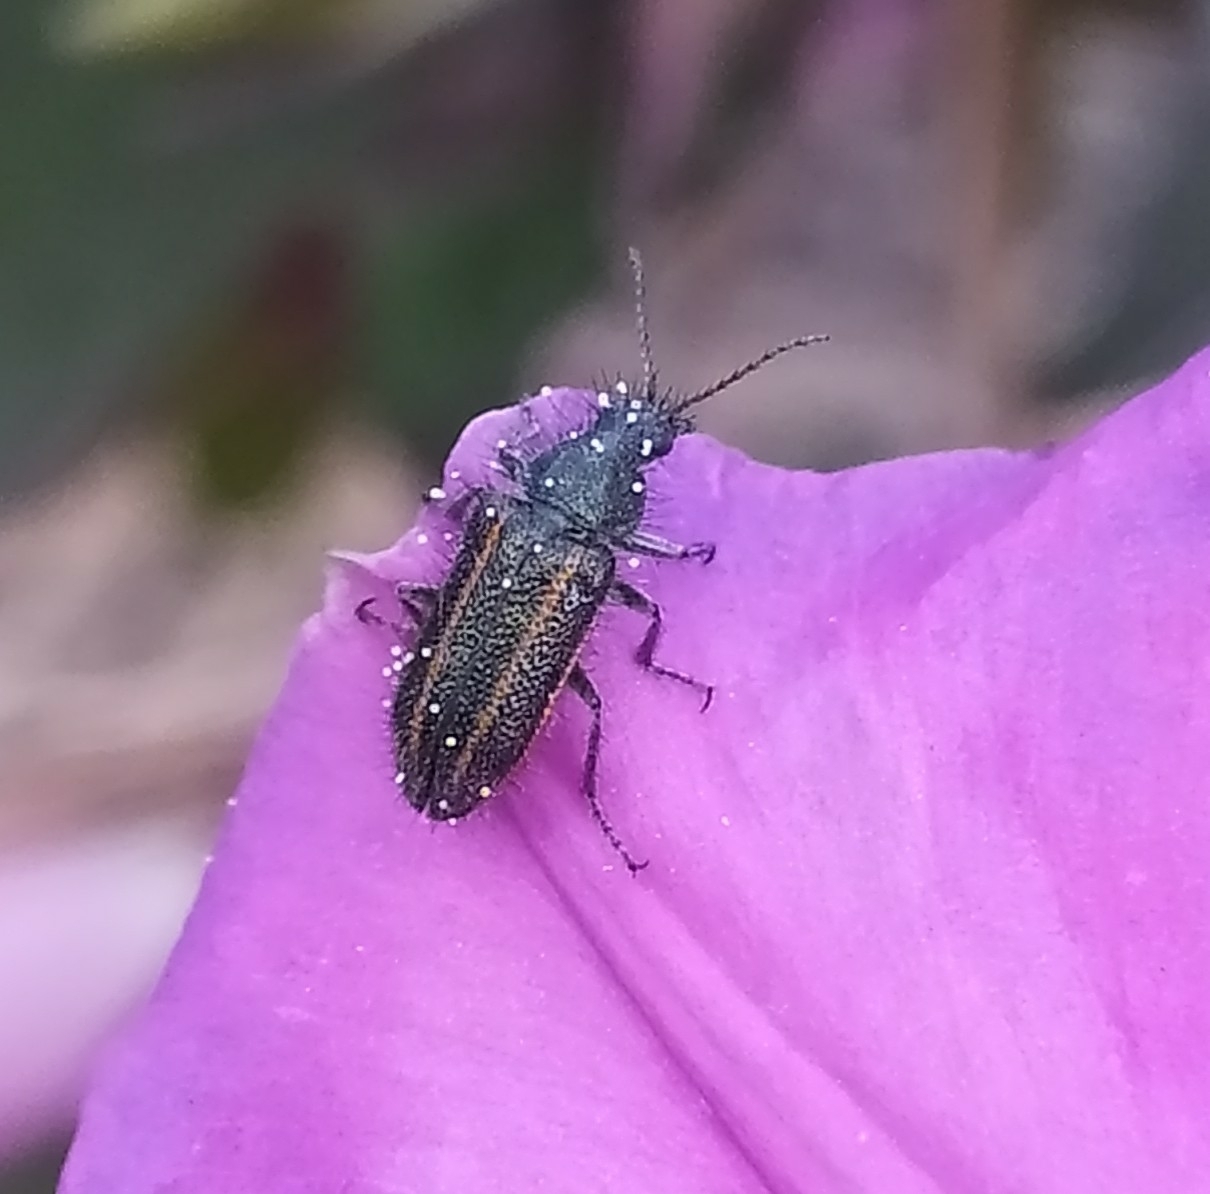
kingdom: Animalia
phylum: Arthropoda
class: Insecta
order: Coleoptera
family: Melyridae
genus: Astylus
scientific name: Astylus
